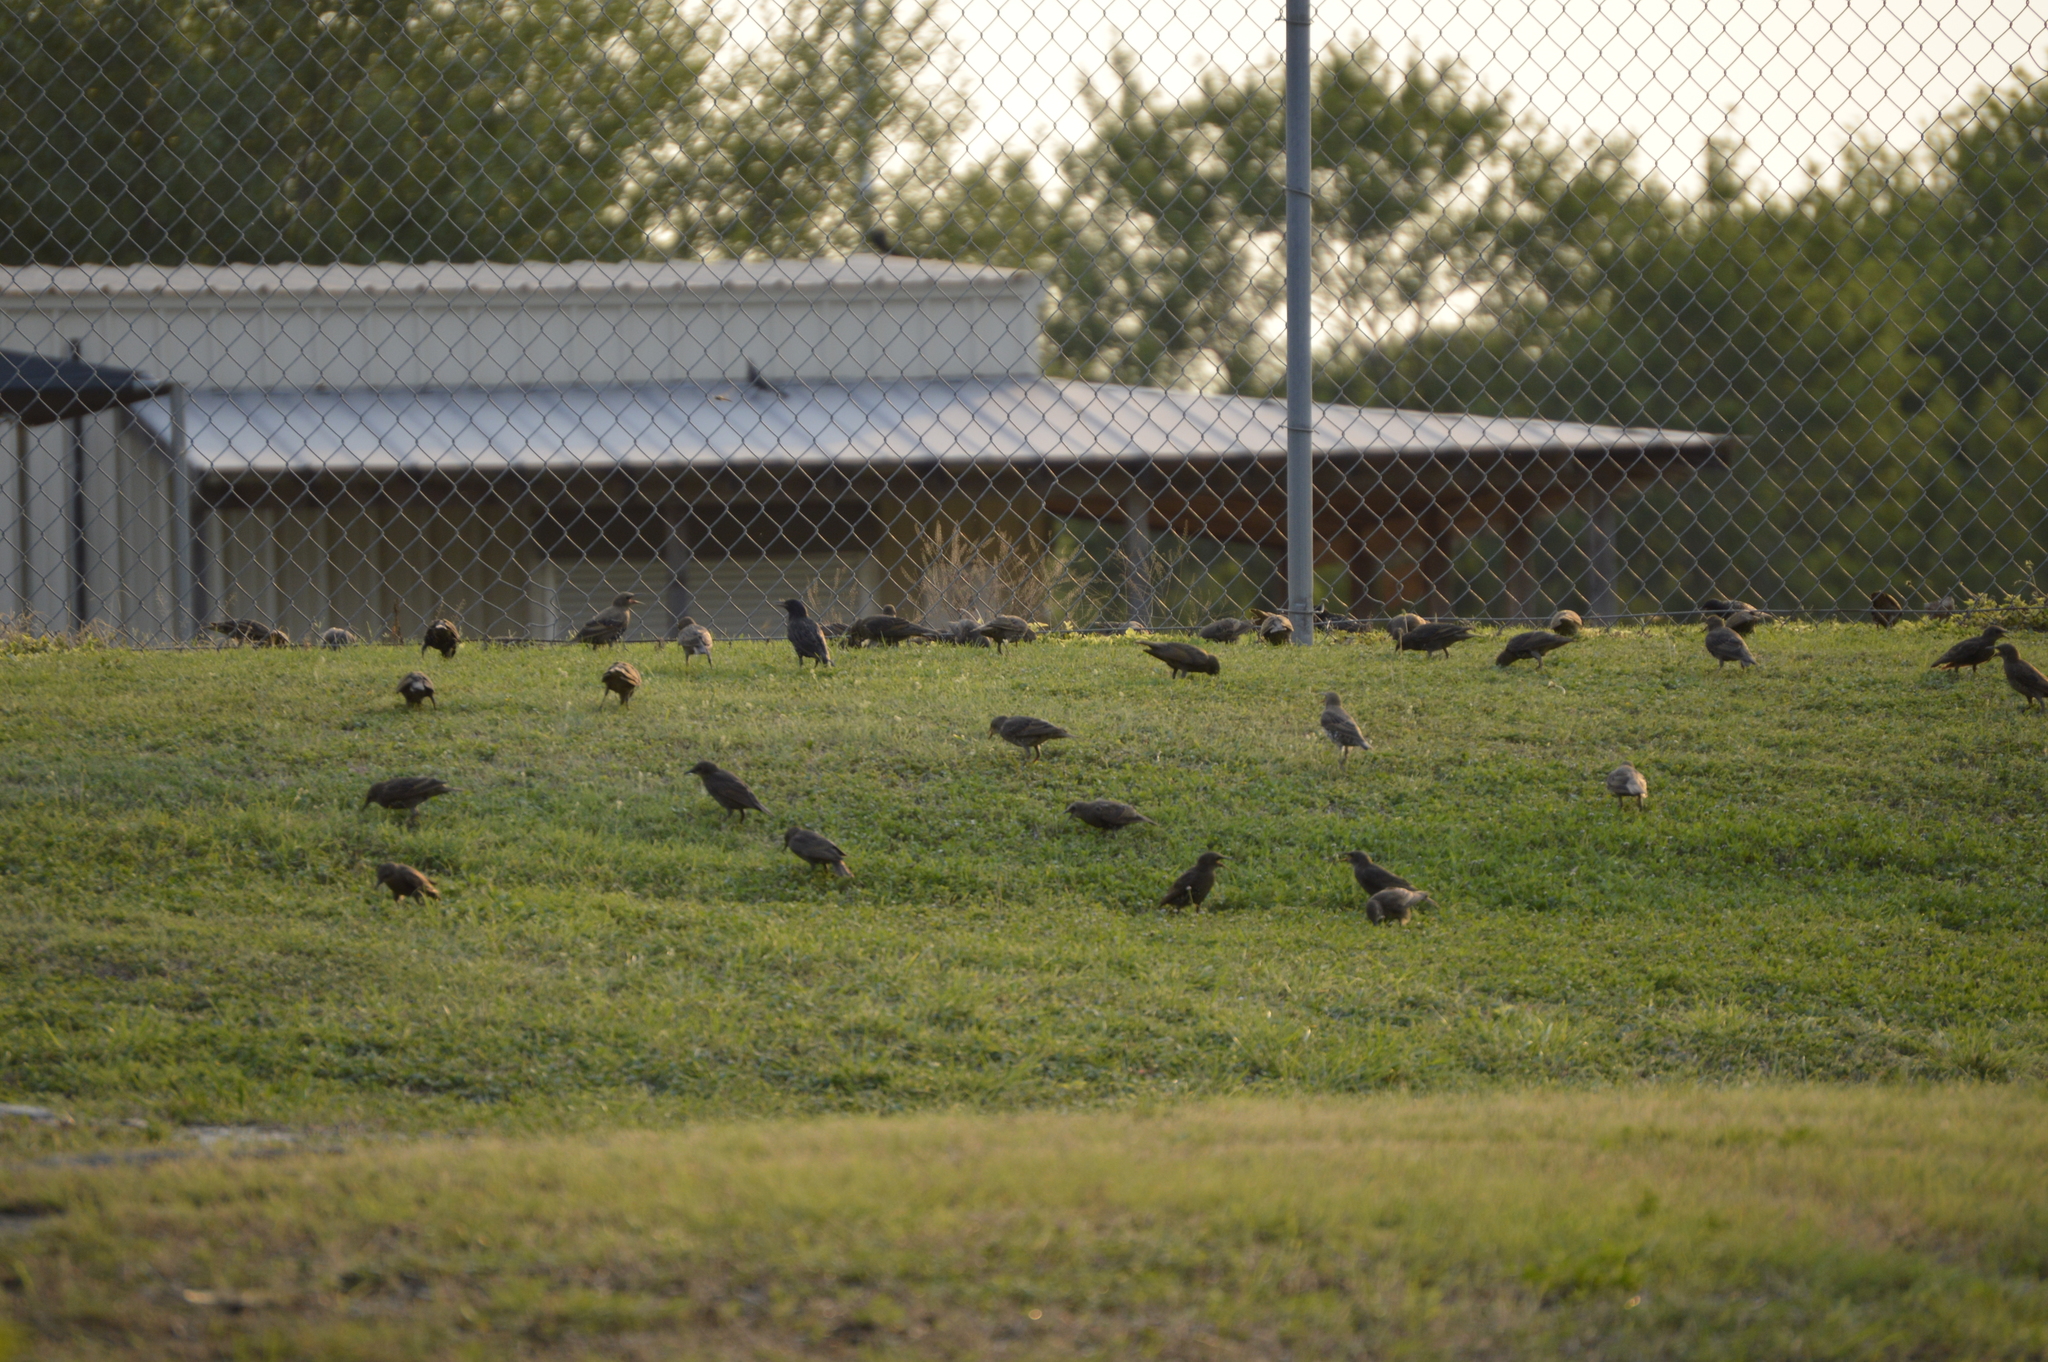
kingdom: Animalia
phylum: Chordata
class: Aves
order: Passeriformes
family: Sturnidae
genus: Sturnus
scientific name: Sturnus vulgaris
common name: Common starling
